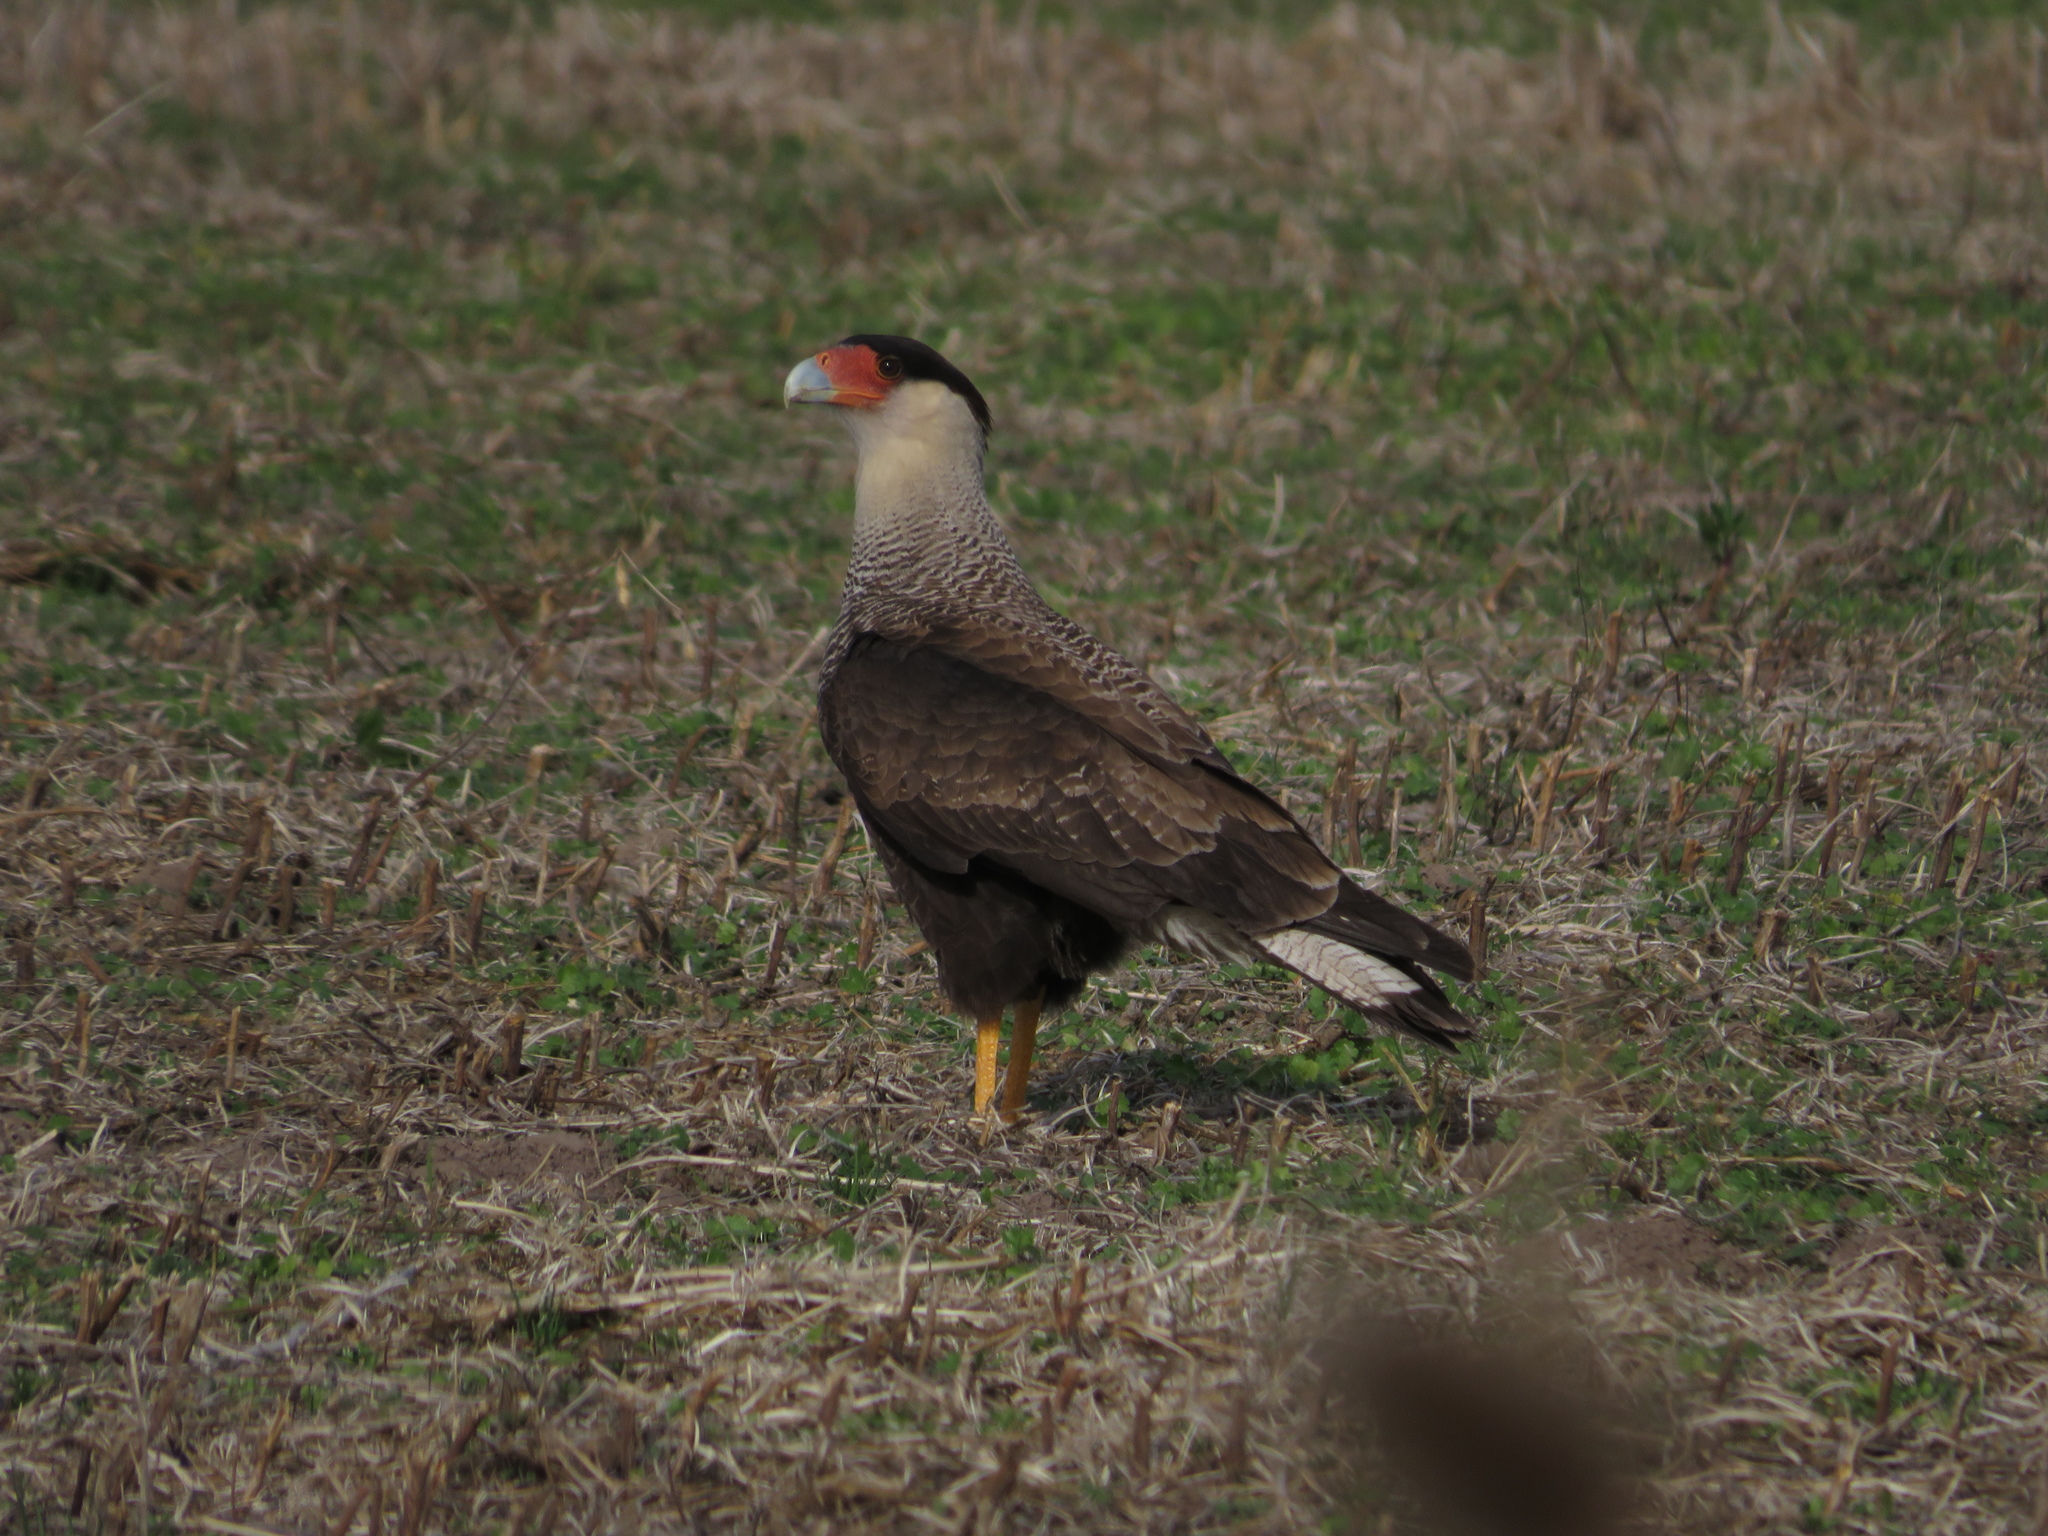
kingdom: Animalia
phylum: Chordata
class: Aves
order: Falconiformes
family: Falconidae
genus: Caracara
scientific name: Caracara plancus
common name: Southern caracara
